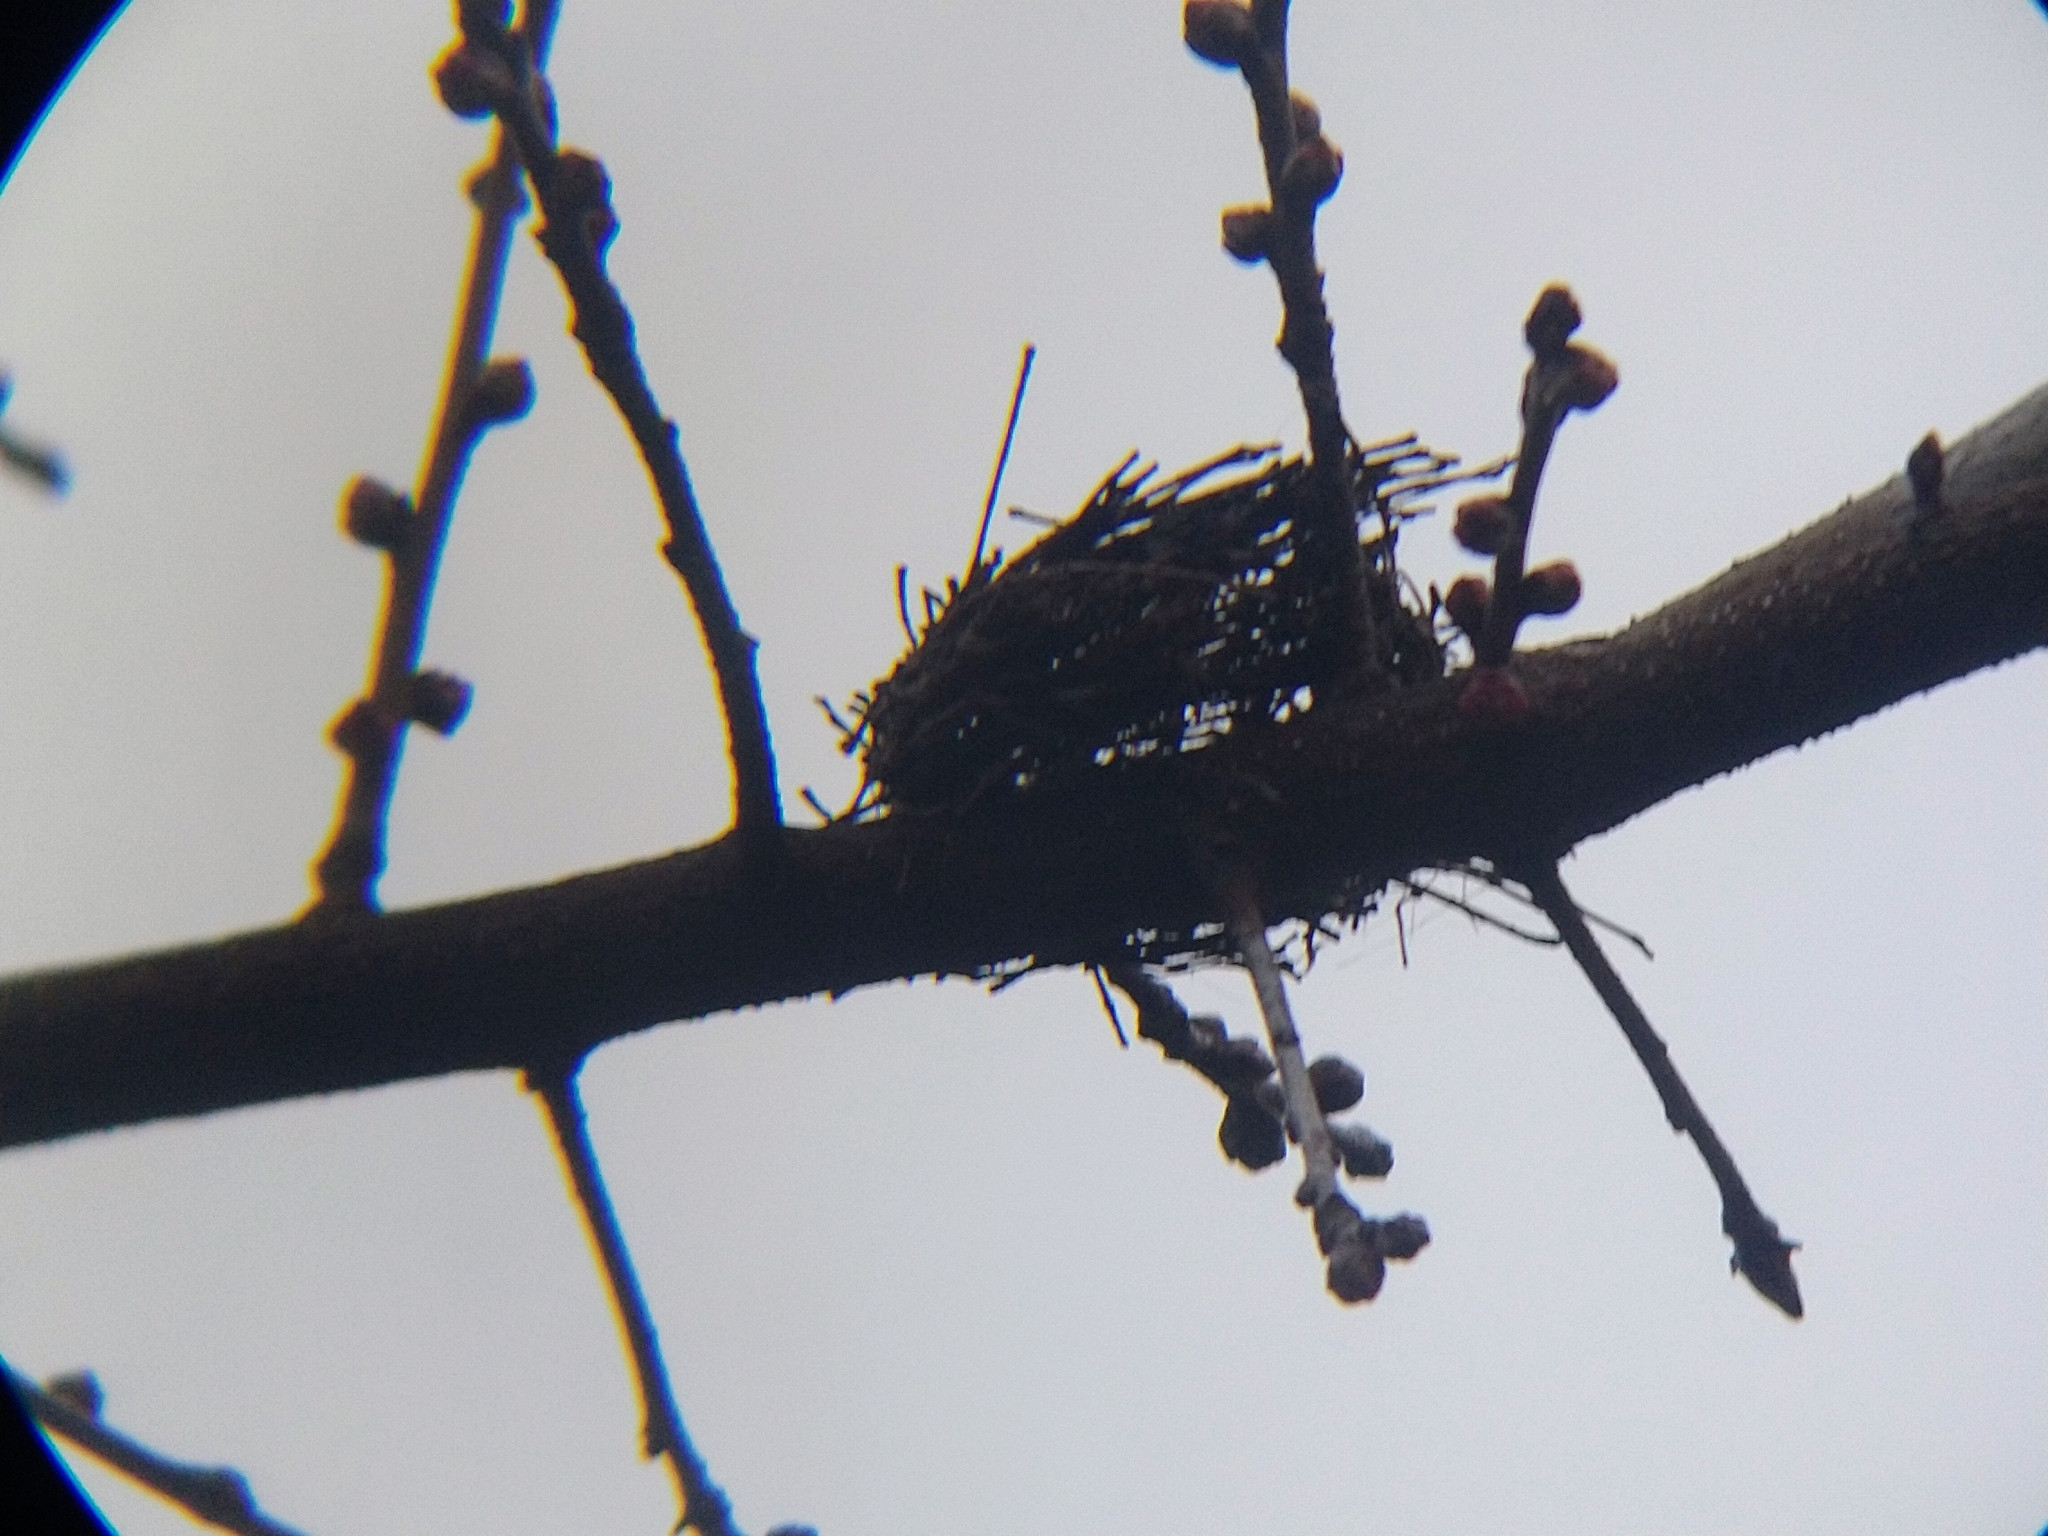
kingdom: Animalia
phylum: Chordata
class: Aves
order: Apodiformes
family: Trochilidae
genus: Calypte
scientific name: Calypte anna
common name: Anna's hummingbird
